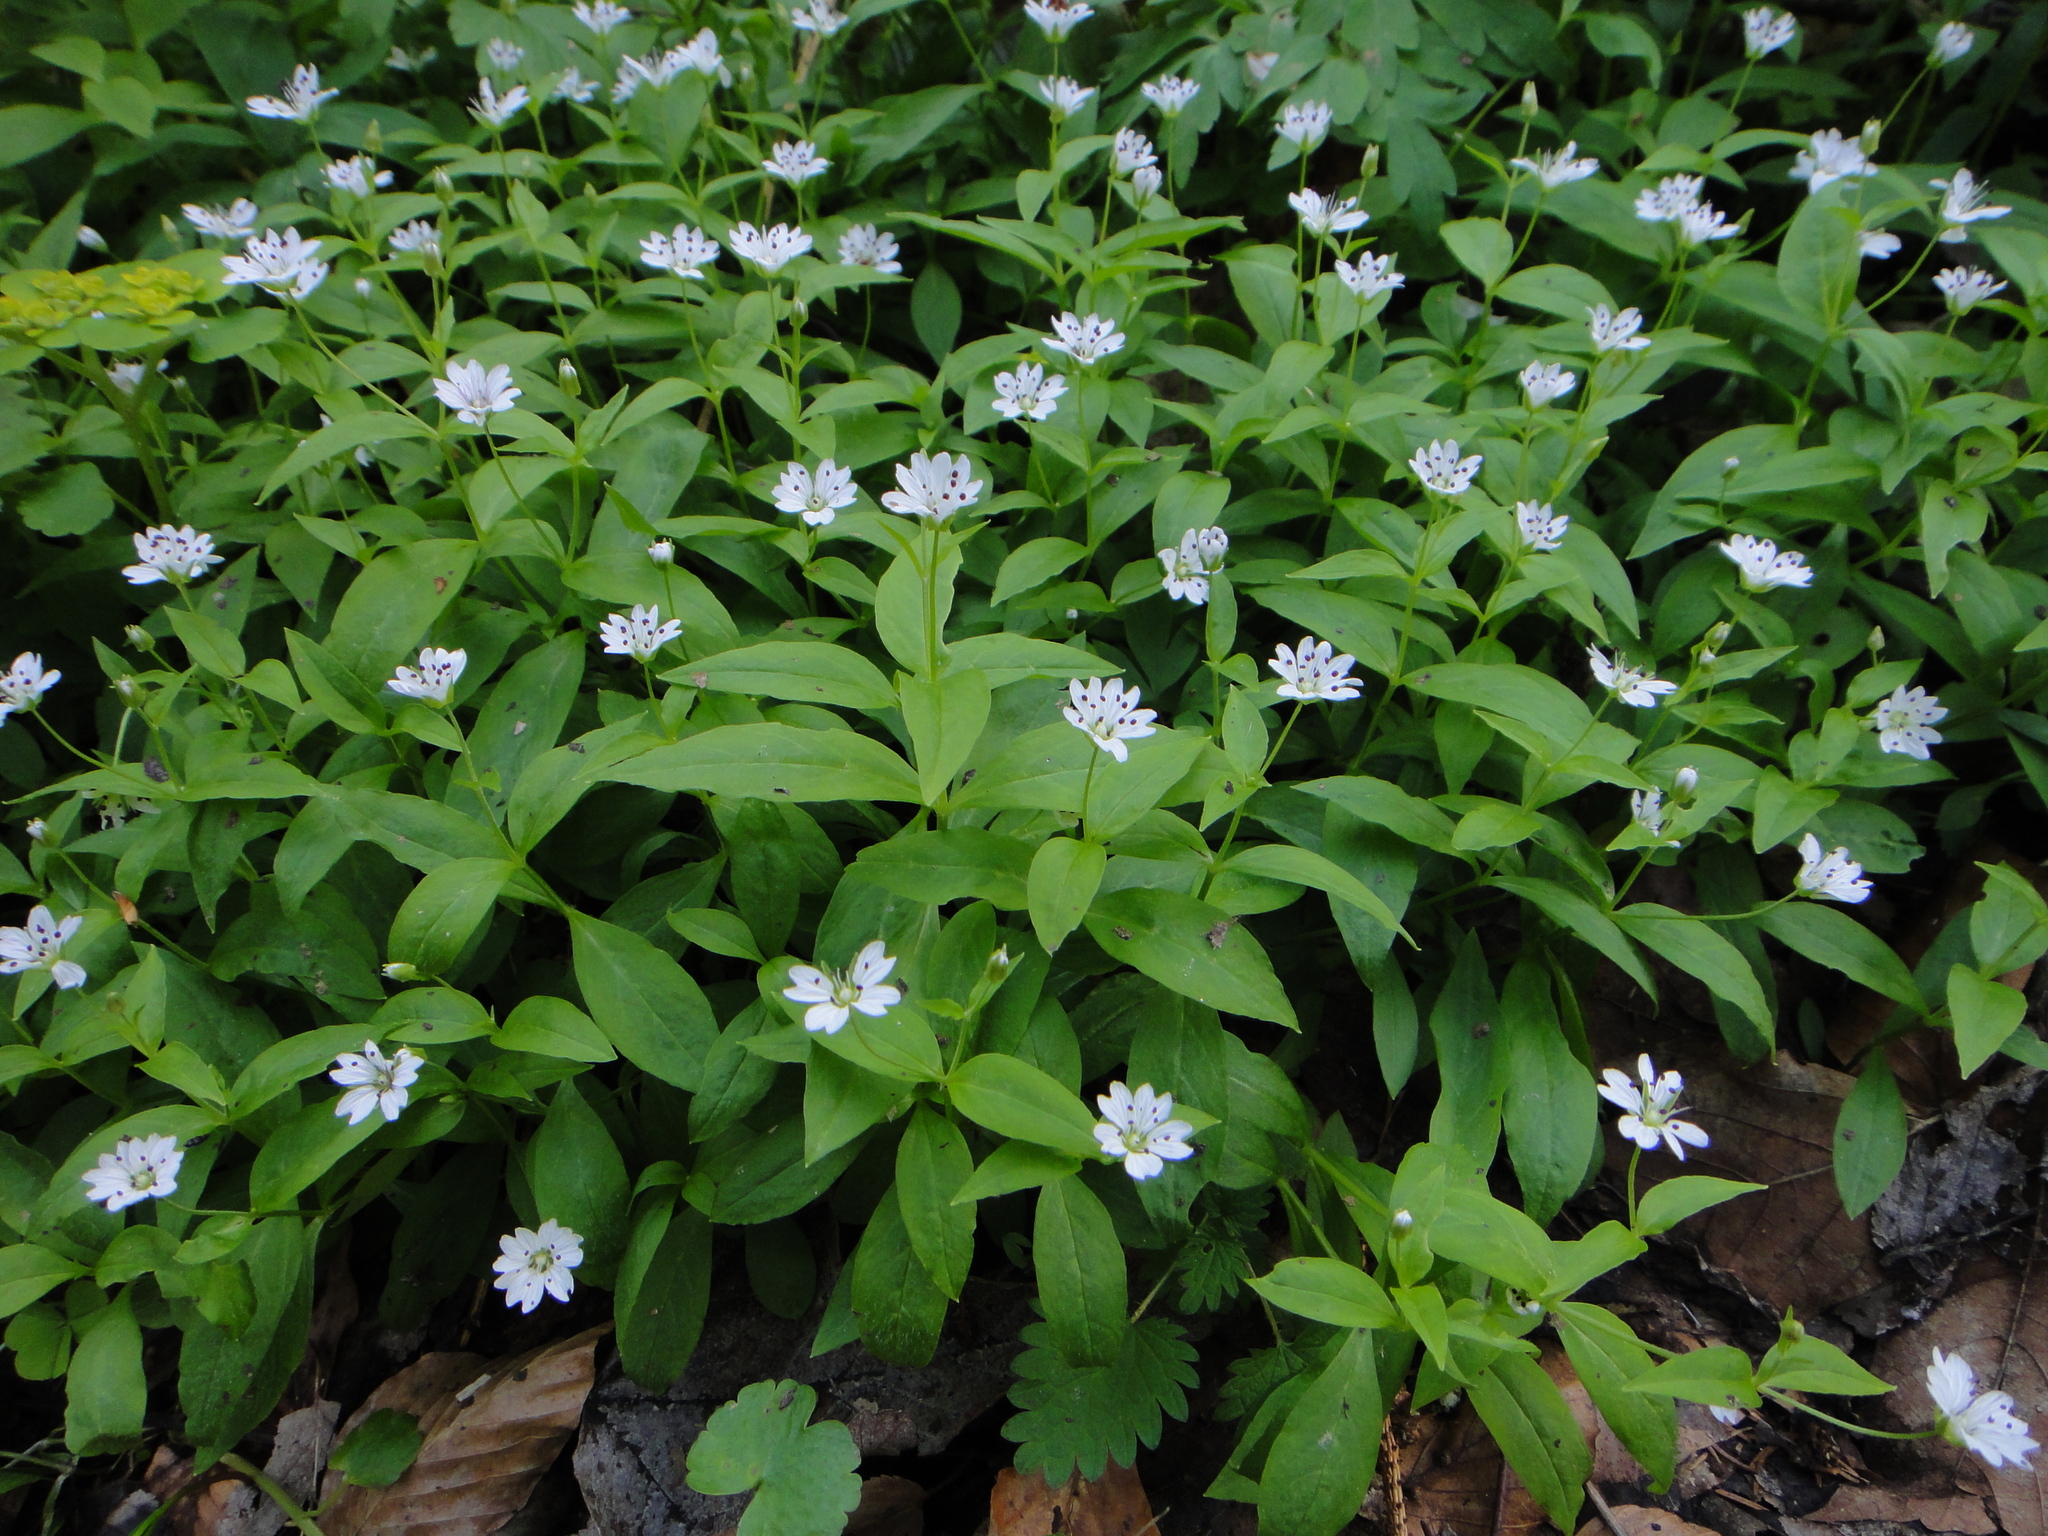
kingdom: Plantae
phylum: Tracheophyta
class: Magnoliopsida
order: Caryophyllales
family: Caryophyllaceae
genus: Pseudostellaria
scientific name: Pseudostellaria europaea
